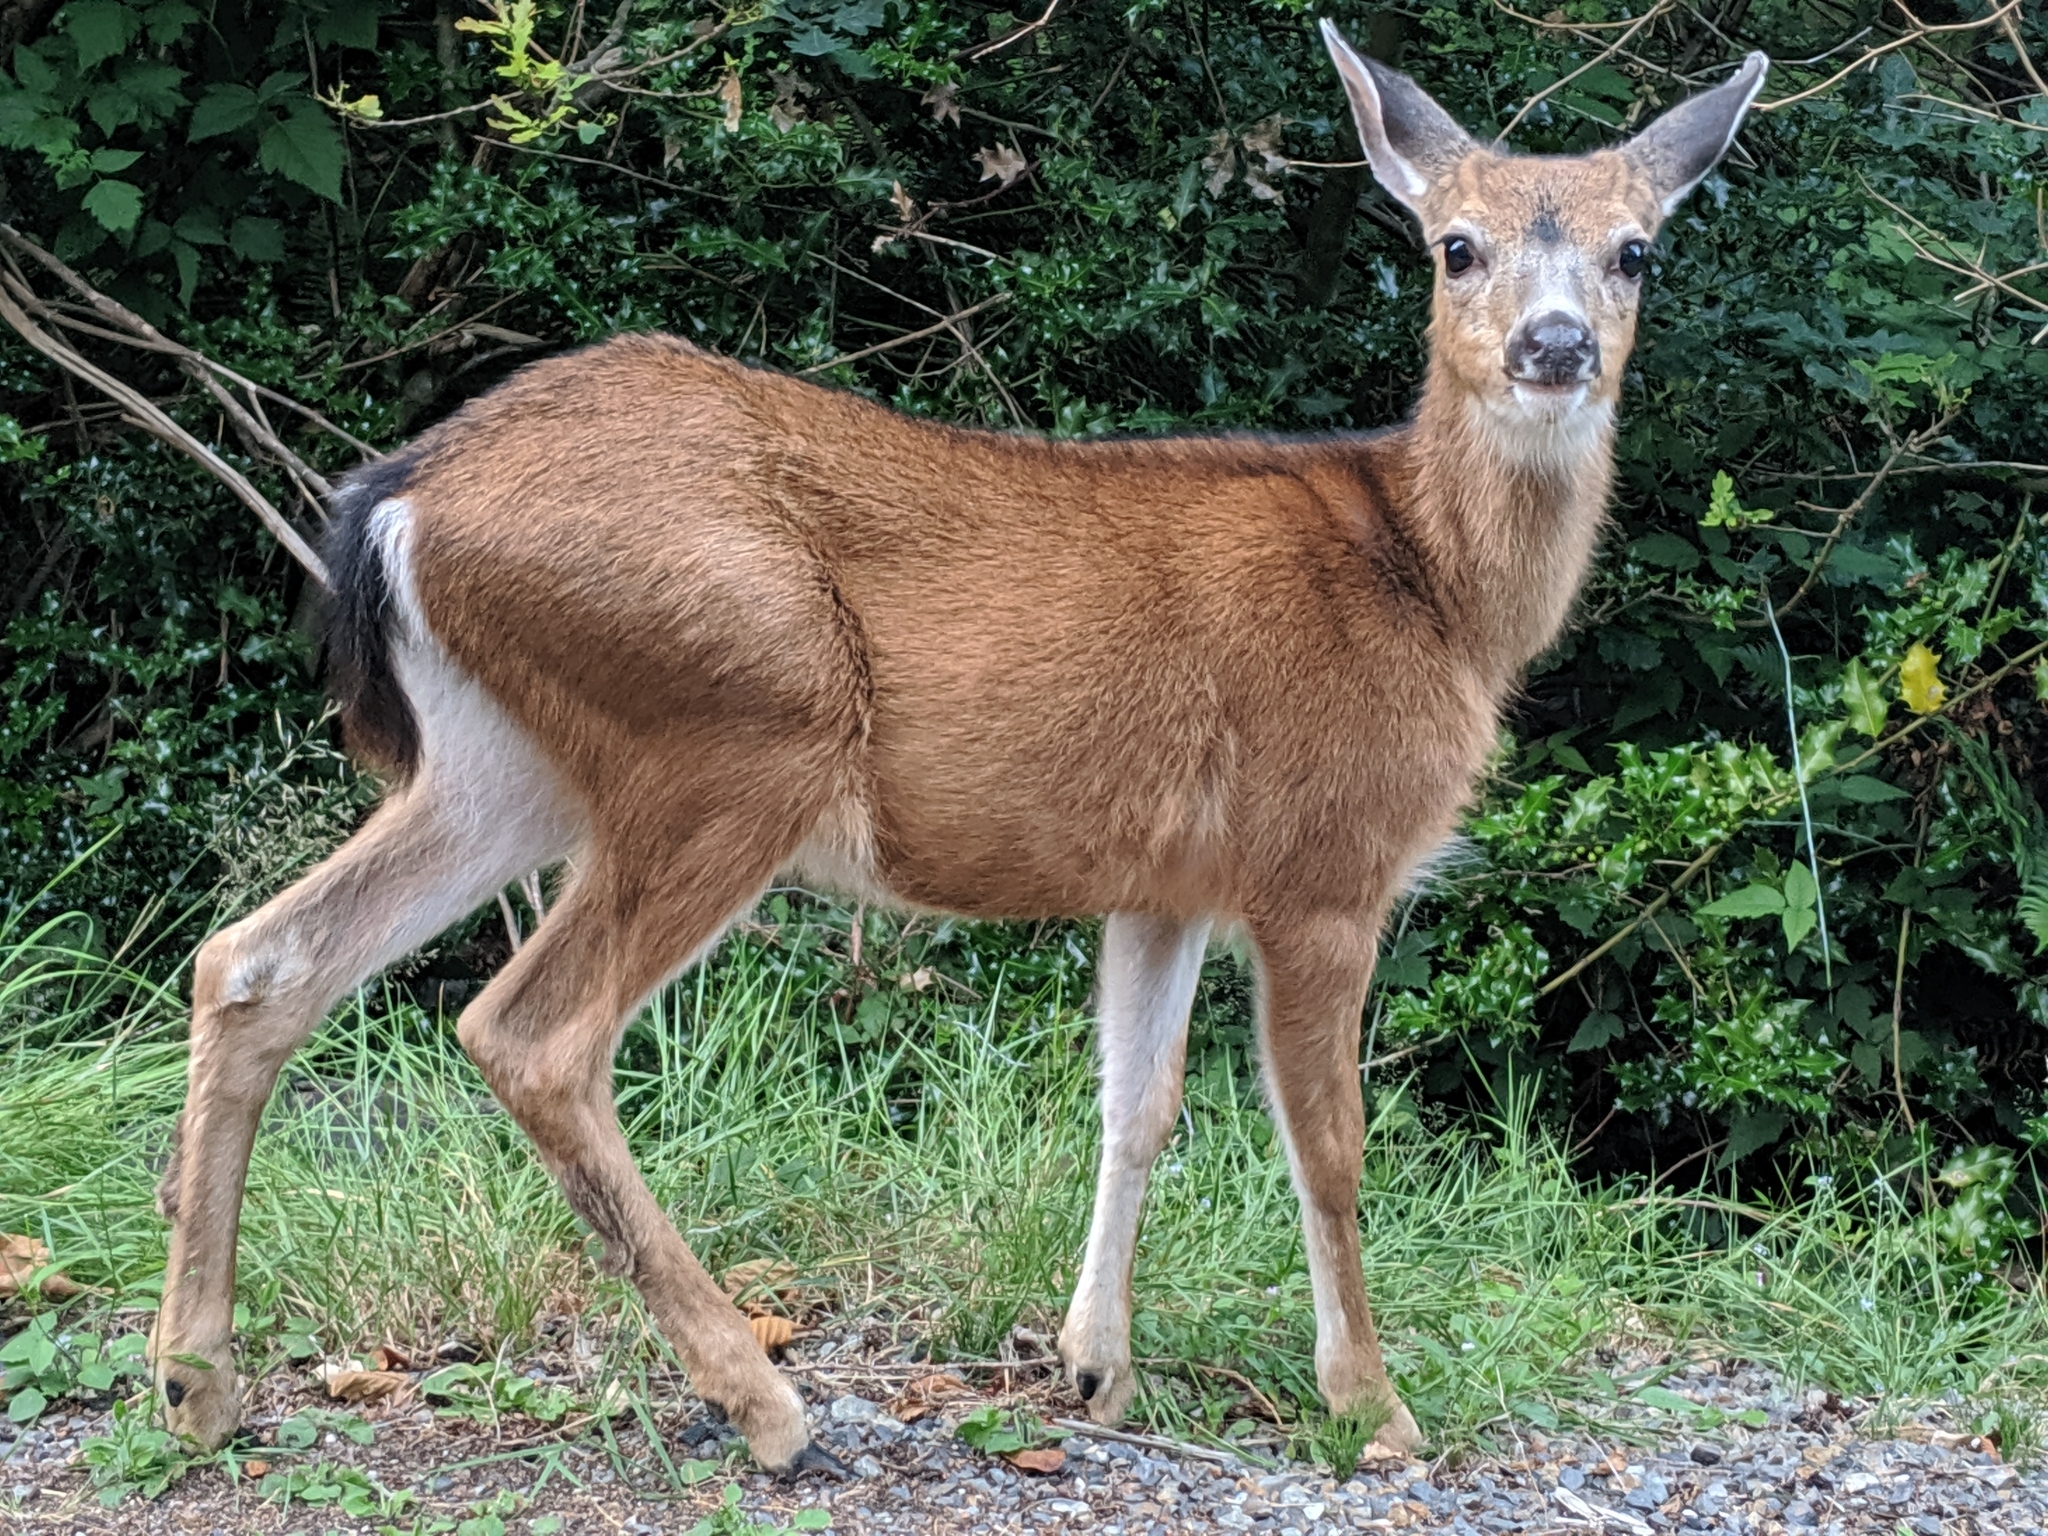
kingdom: Animalia
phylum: Chordata
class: Mammalia
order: Artiodactyla
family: Cervidae
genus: Odocoileus
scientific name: Odocoileus hemionus
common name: Mule deer
